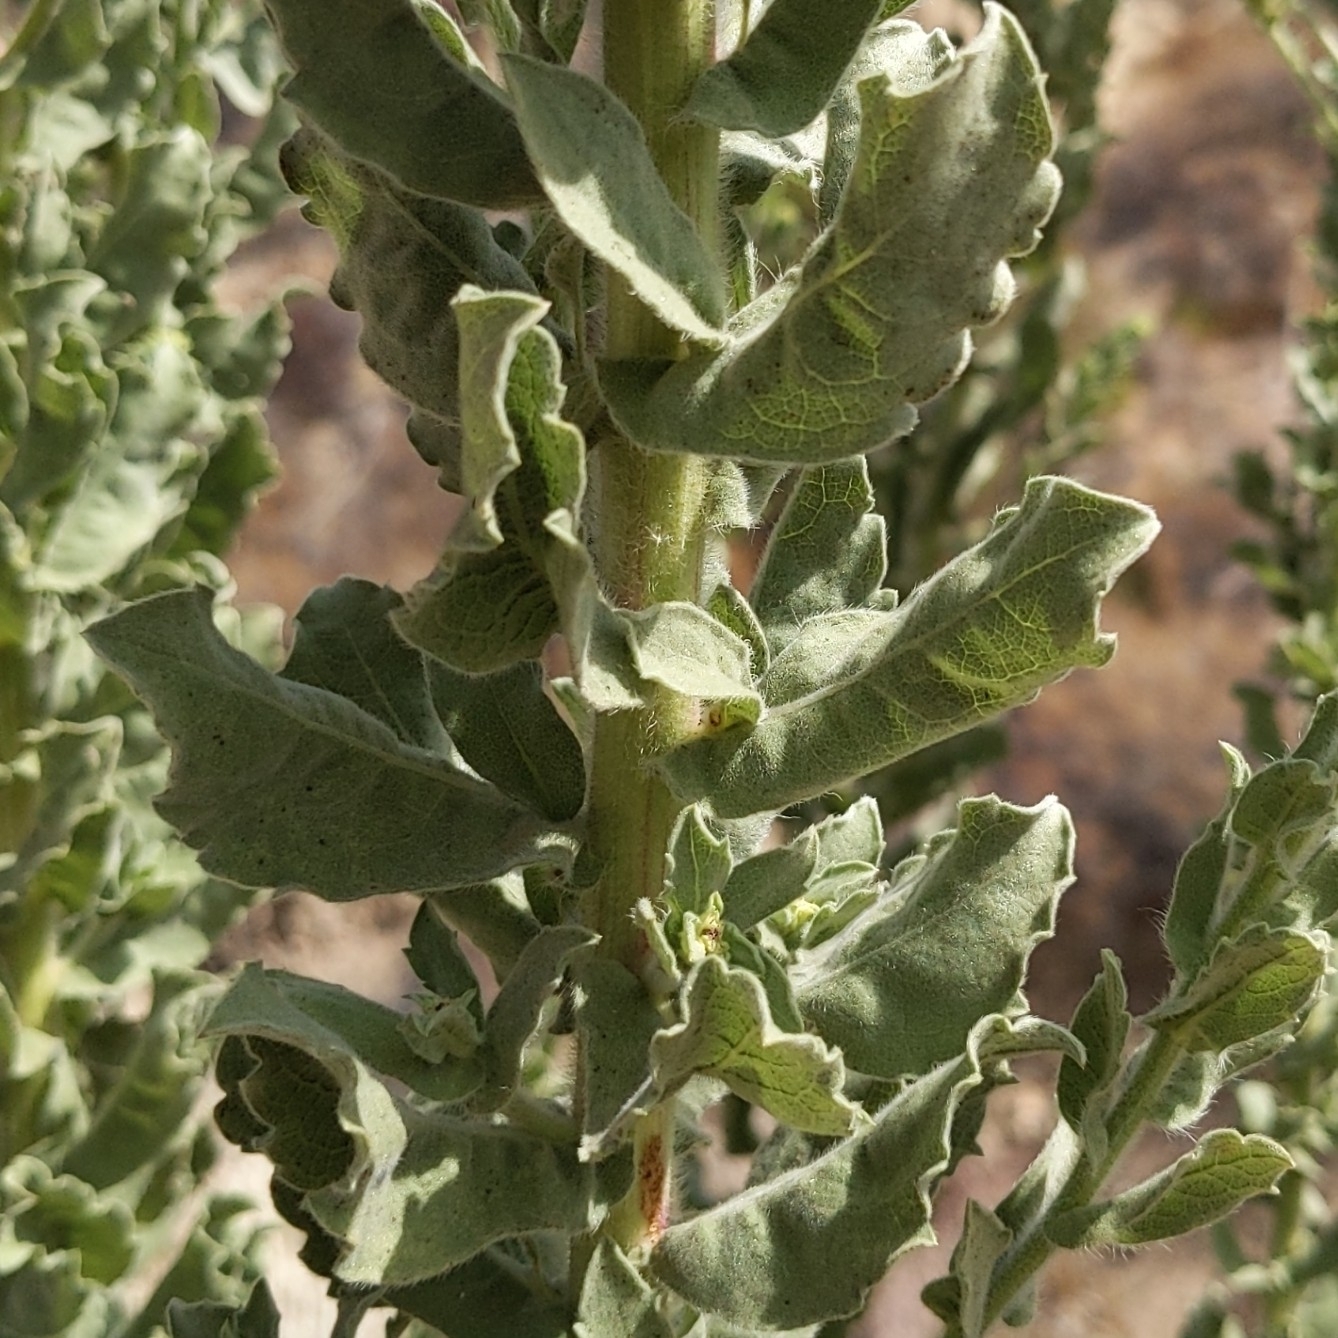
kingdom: Plantae
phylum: Tracheophyta
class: Magnoliopsida
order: Asterales
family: Asteraceae
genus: Heterotheca
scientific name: Heterotheca grandiflora
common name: Telegraphweed
